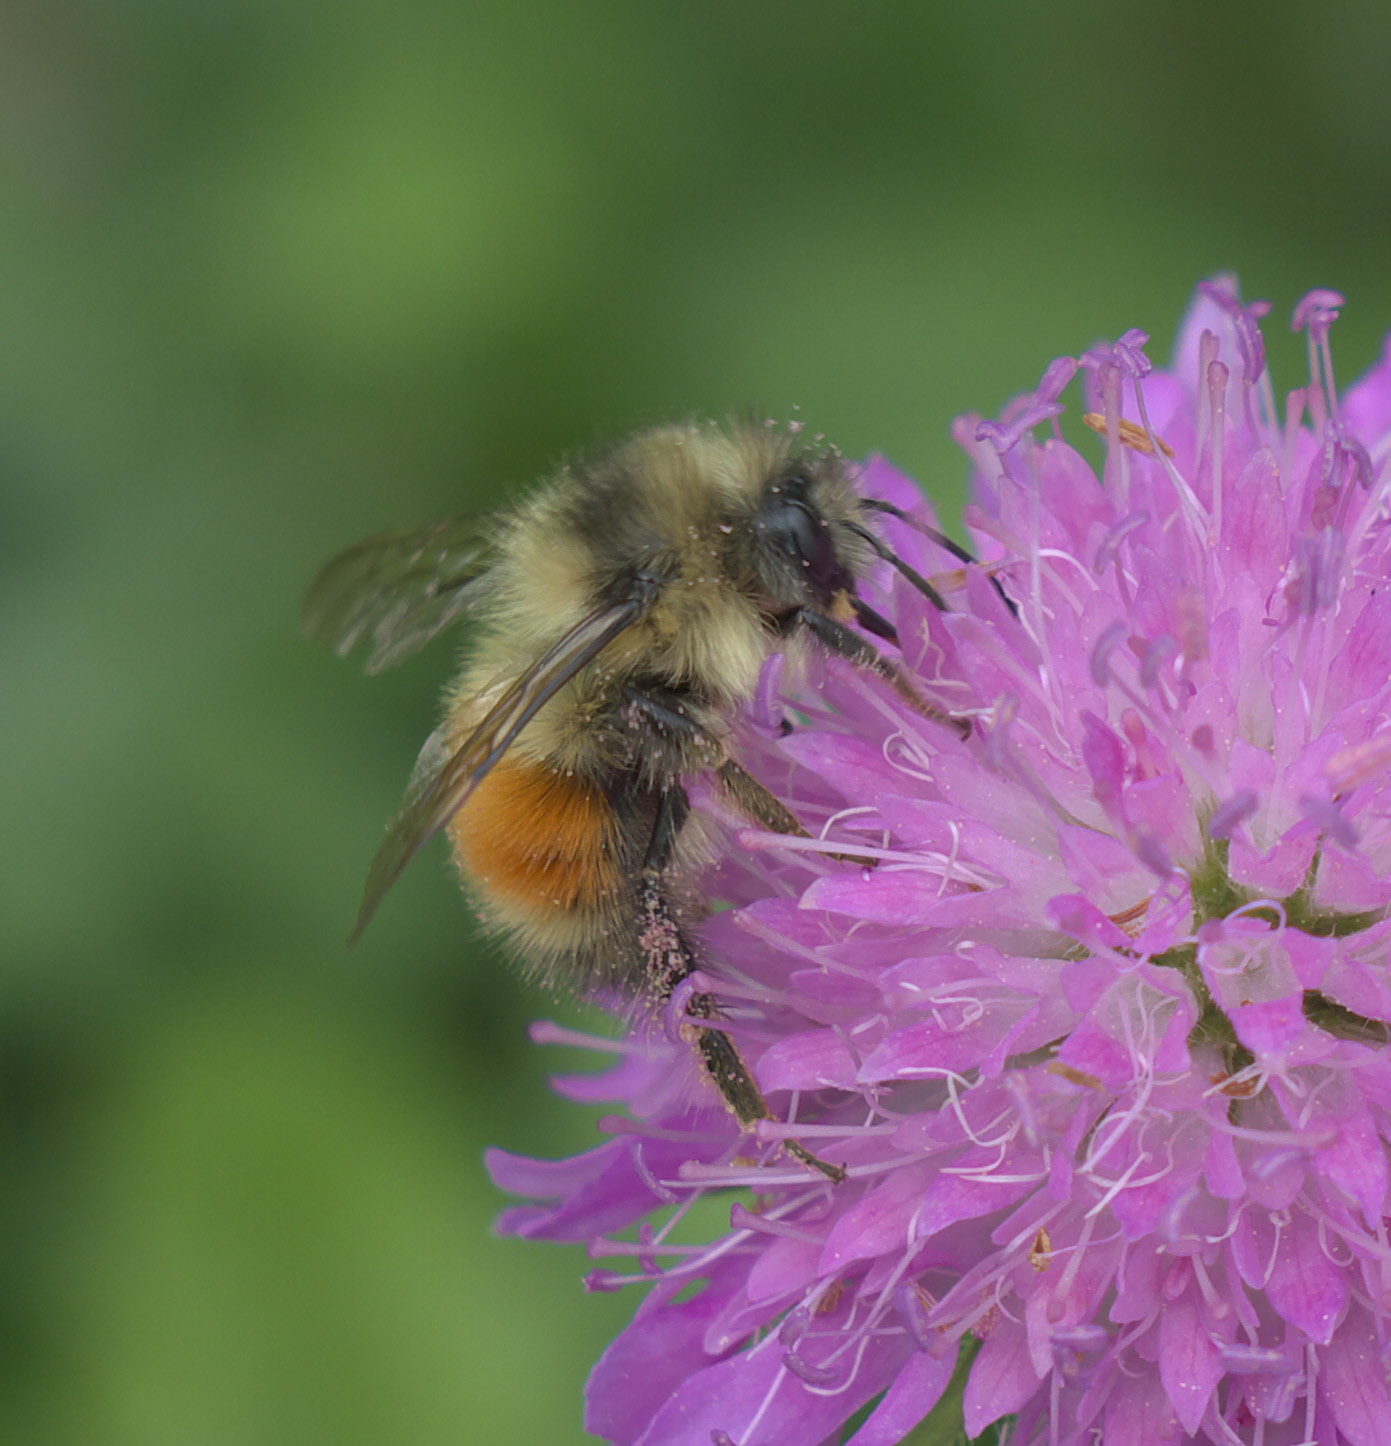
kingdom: Animalia
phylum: Arthropoda
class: Insecta
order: Hymenoptera
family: Apidae
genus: Bombus
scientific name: Bombus melanopygus
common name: Black tail bumble bee
